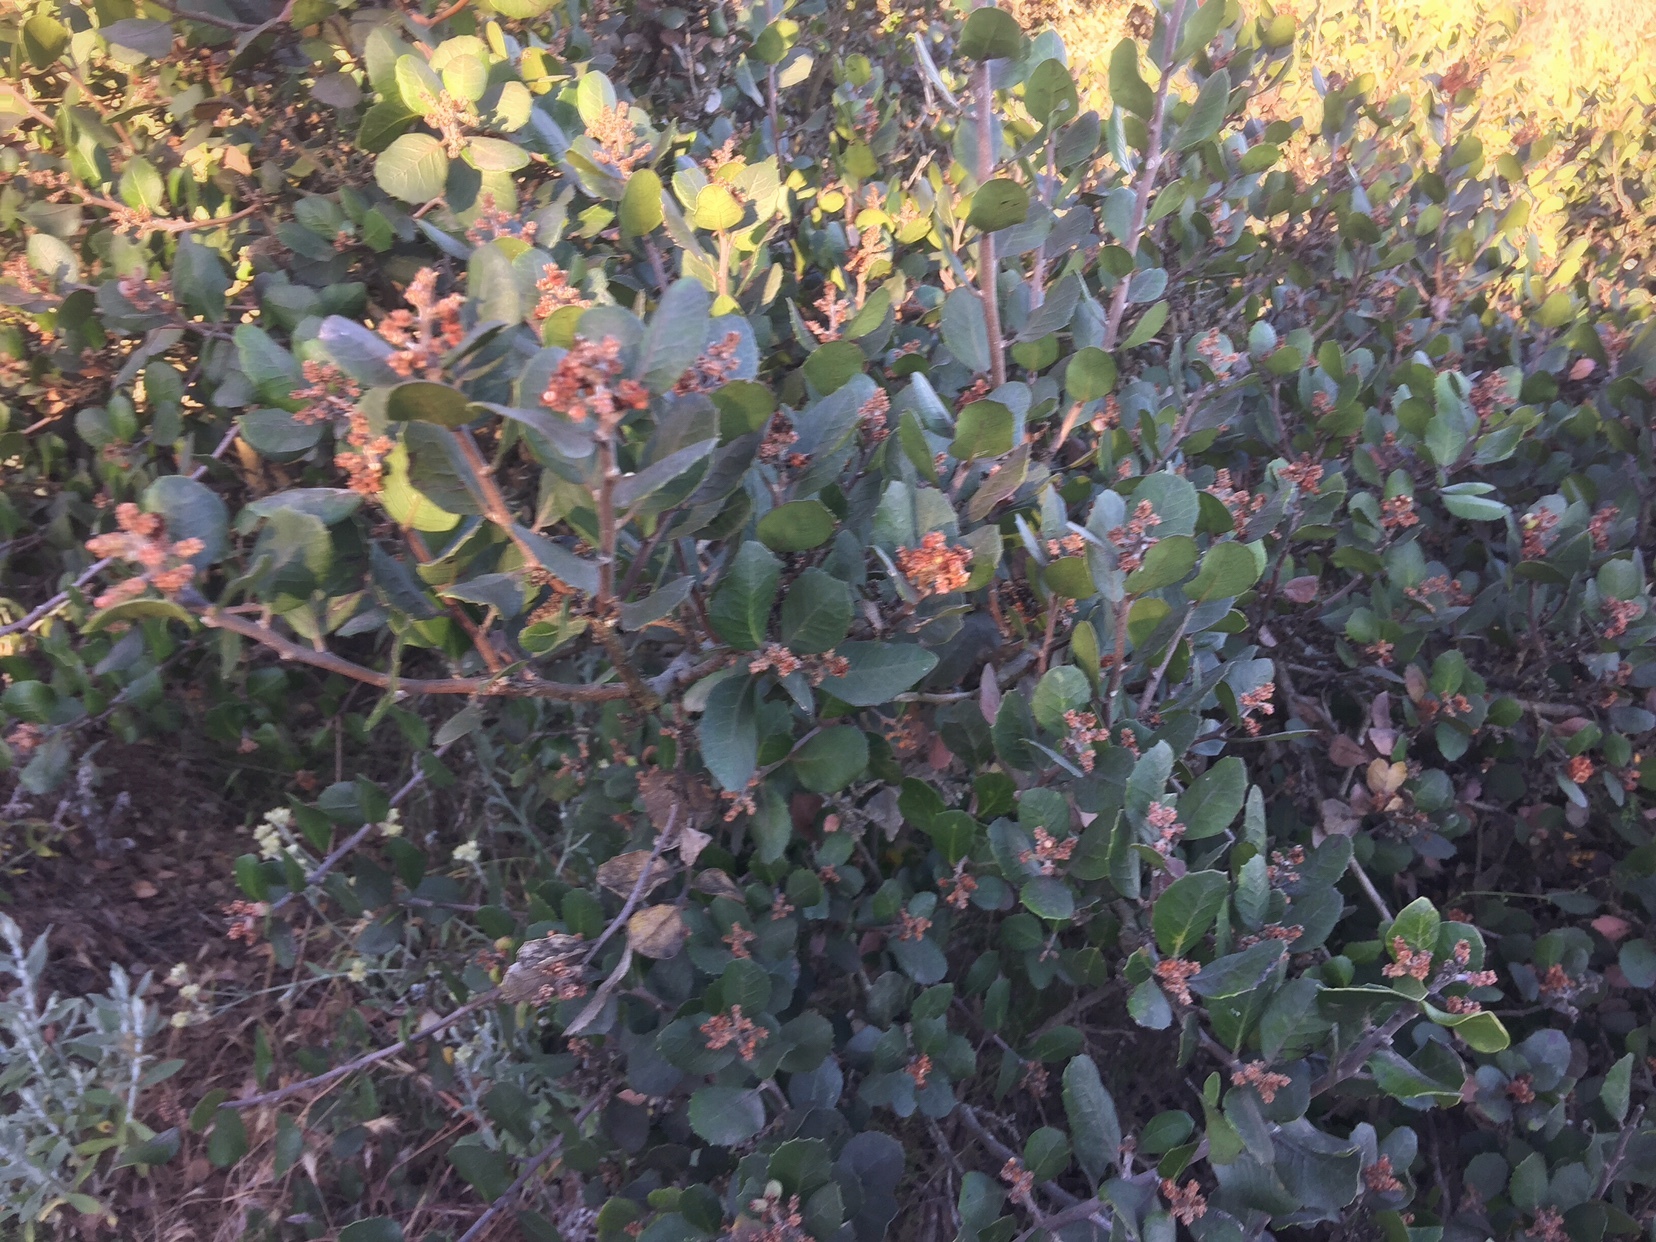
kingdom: Plantae
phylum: Tracheophyta
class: Magnoliopsida
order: Sapindales
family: Anacardiaceae
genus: Rhus
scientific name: Rhus integrifolia
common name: Lemonade sumac
